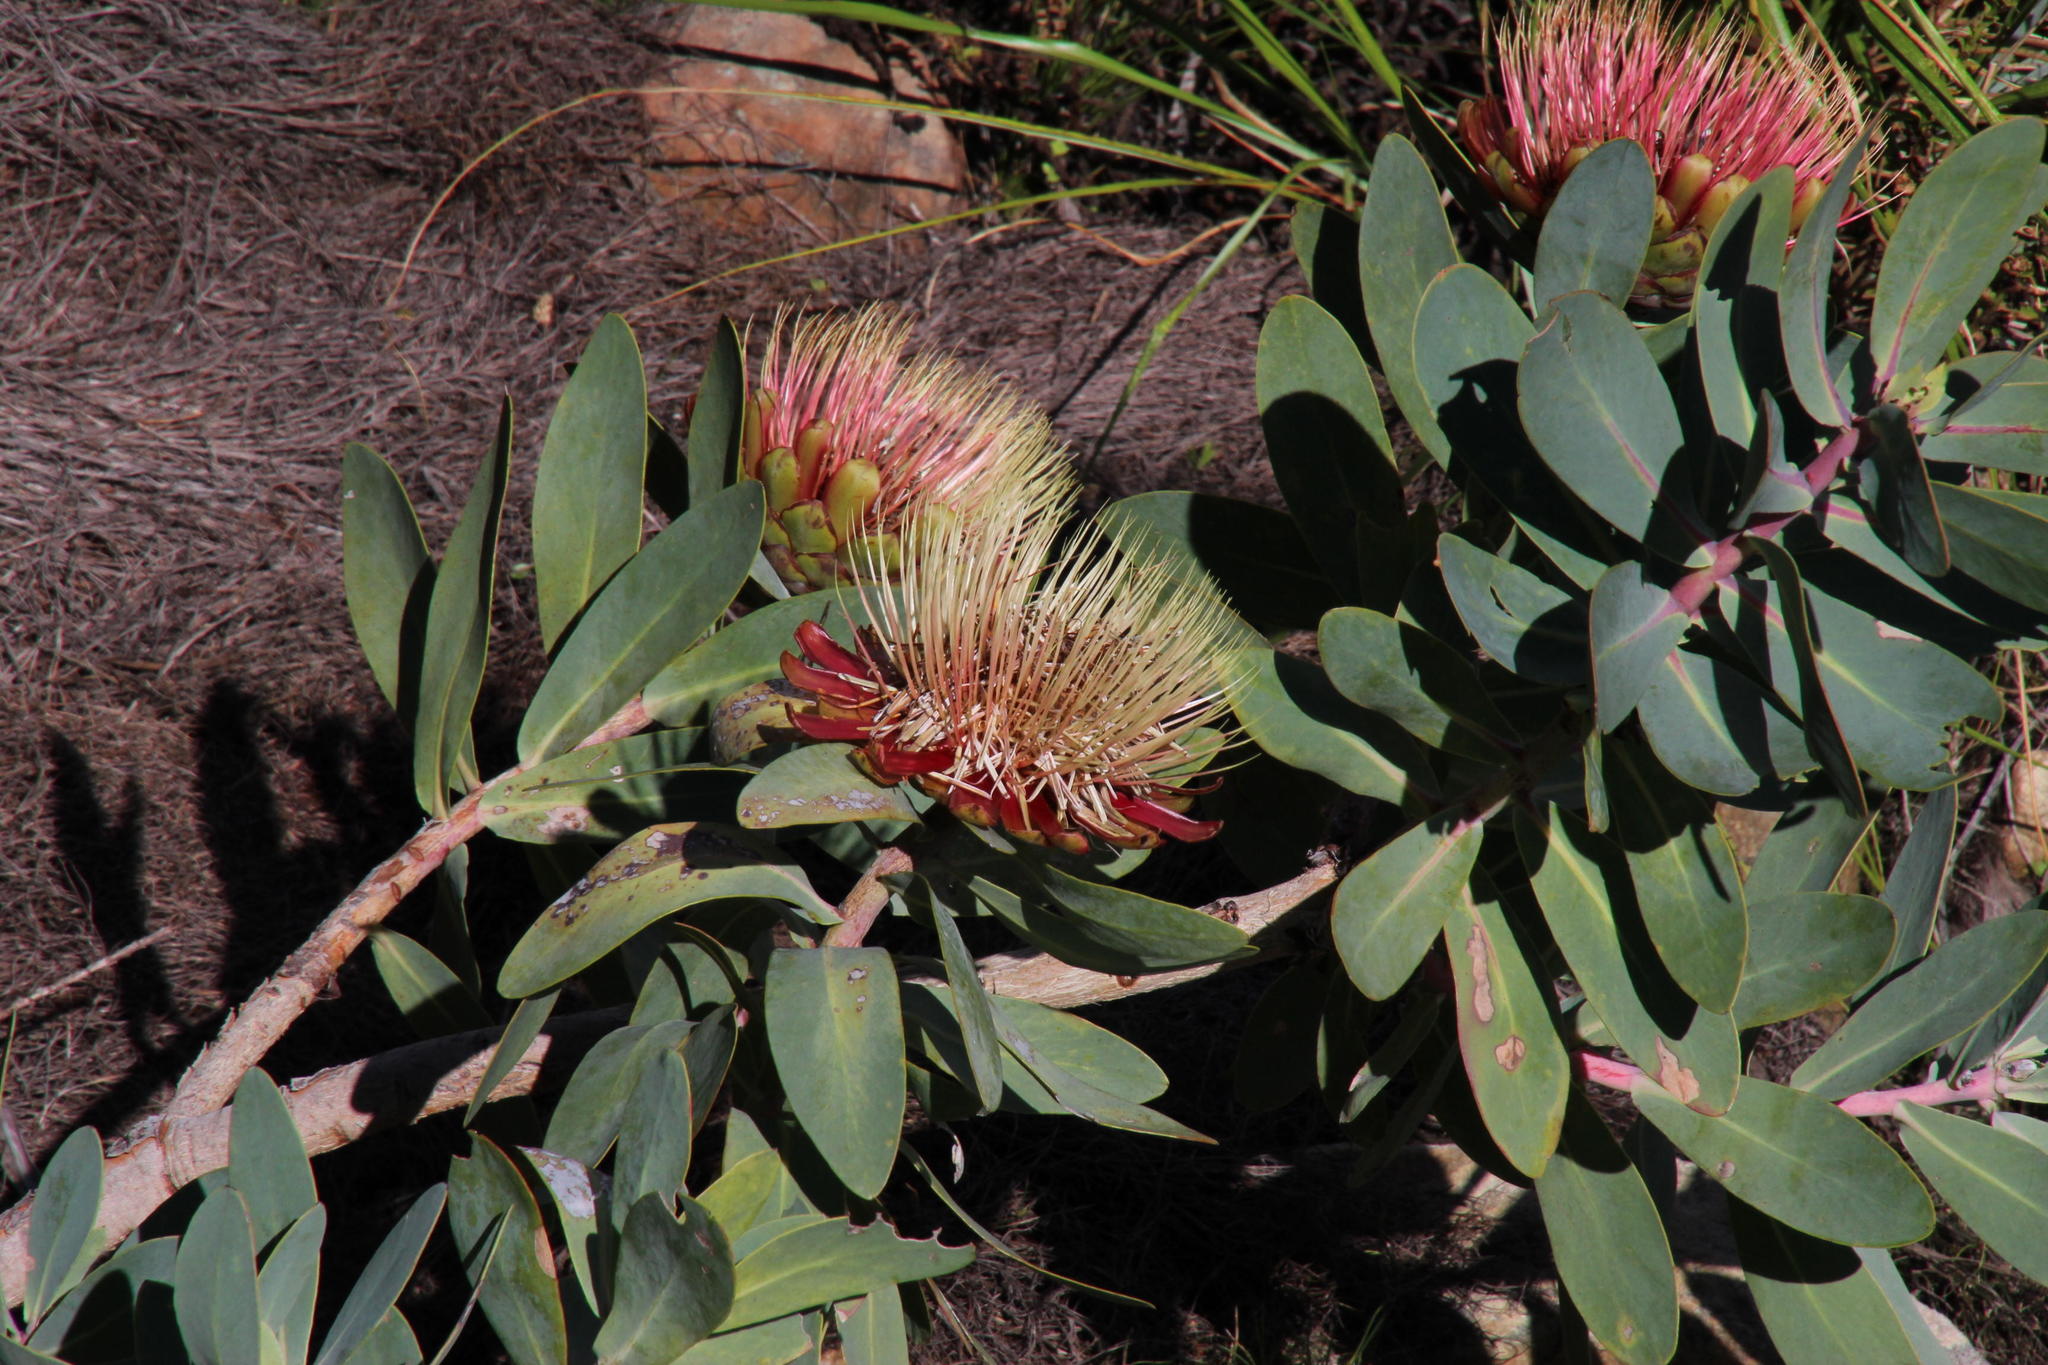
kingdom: Plantae
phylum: Tracheophyta
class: Magnoliopsida
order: Proteales
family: Proteaceae
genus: Protea
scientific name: Protea nitida
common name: Tree protea
